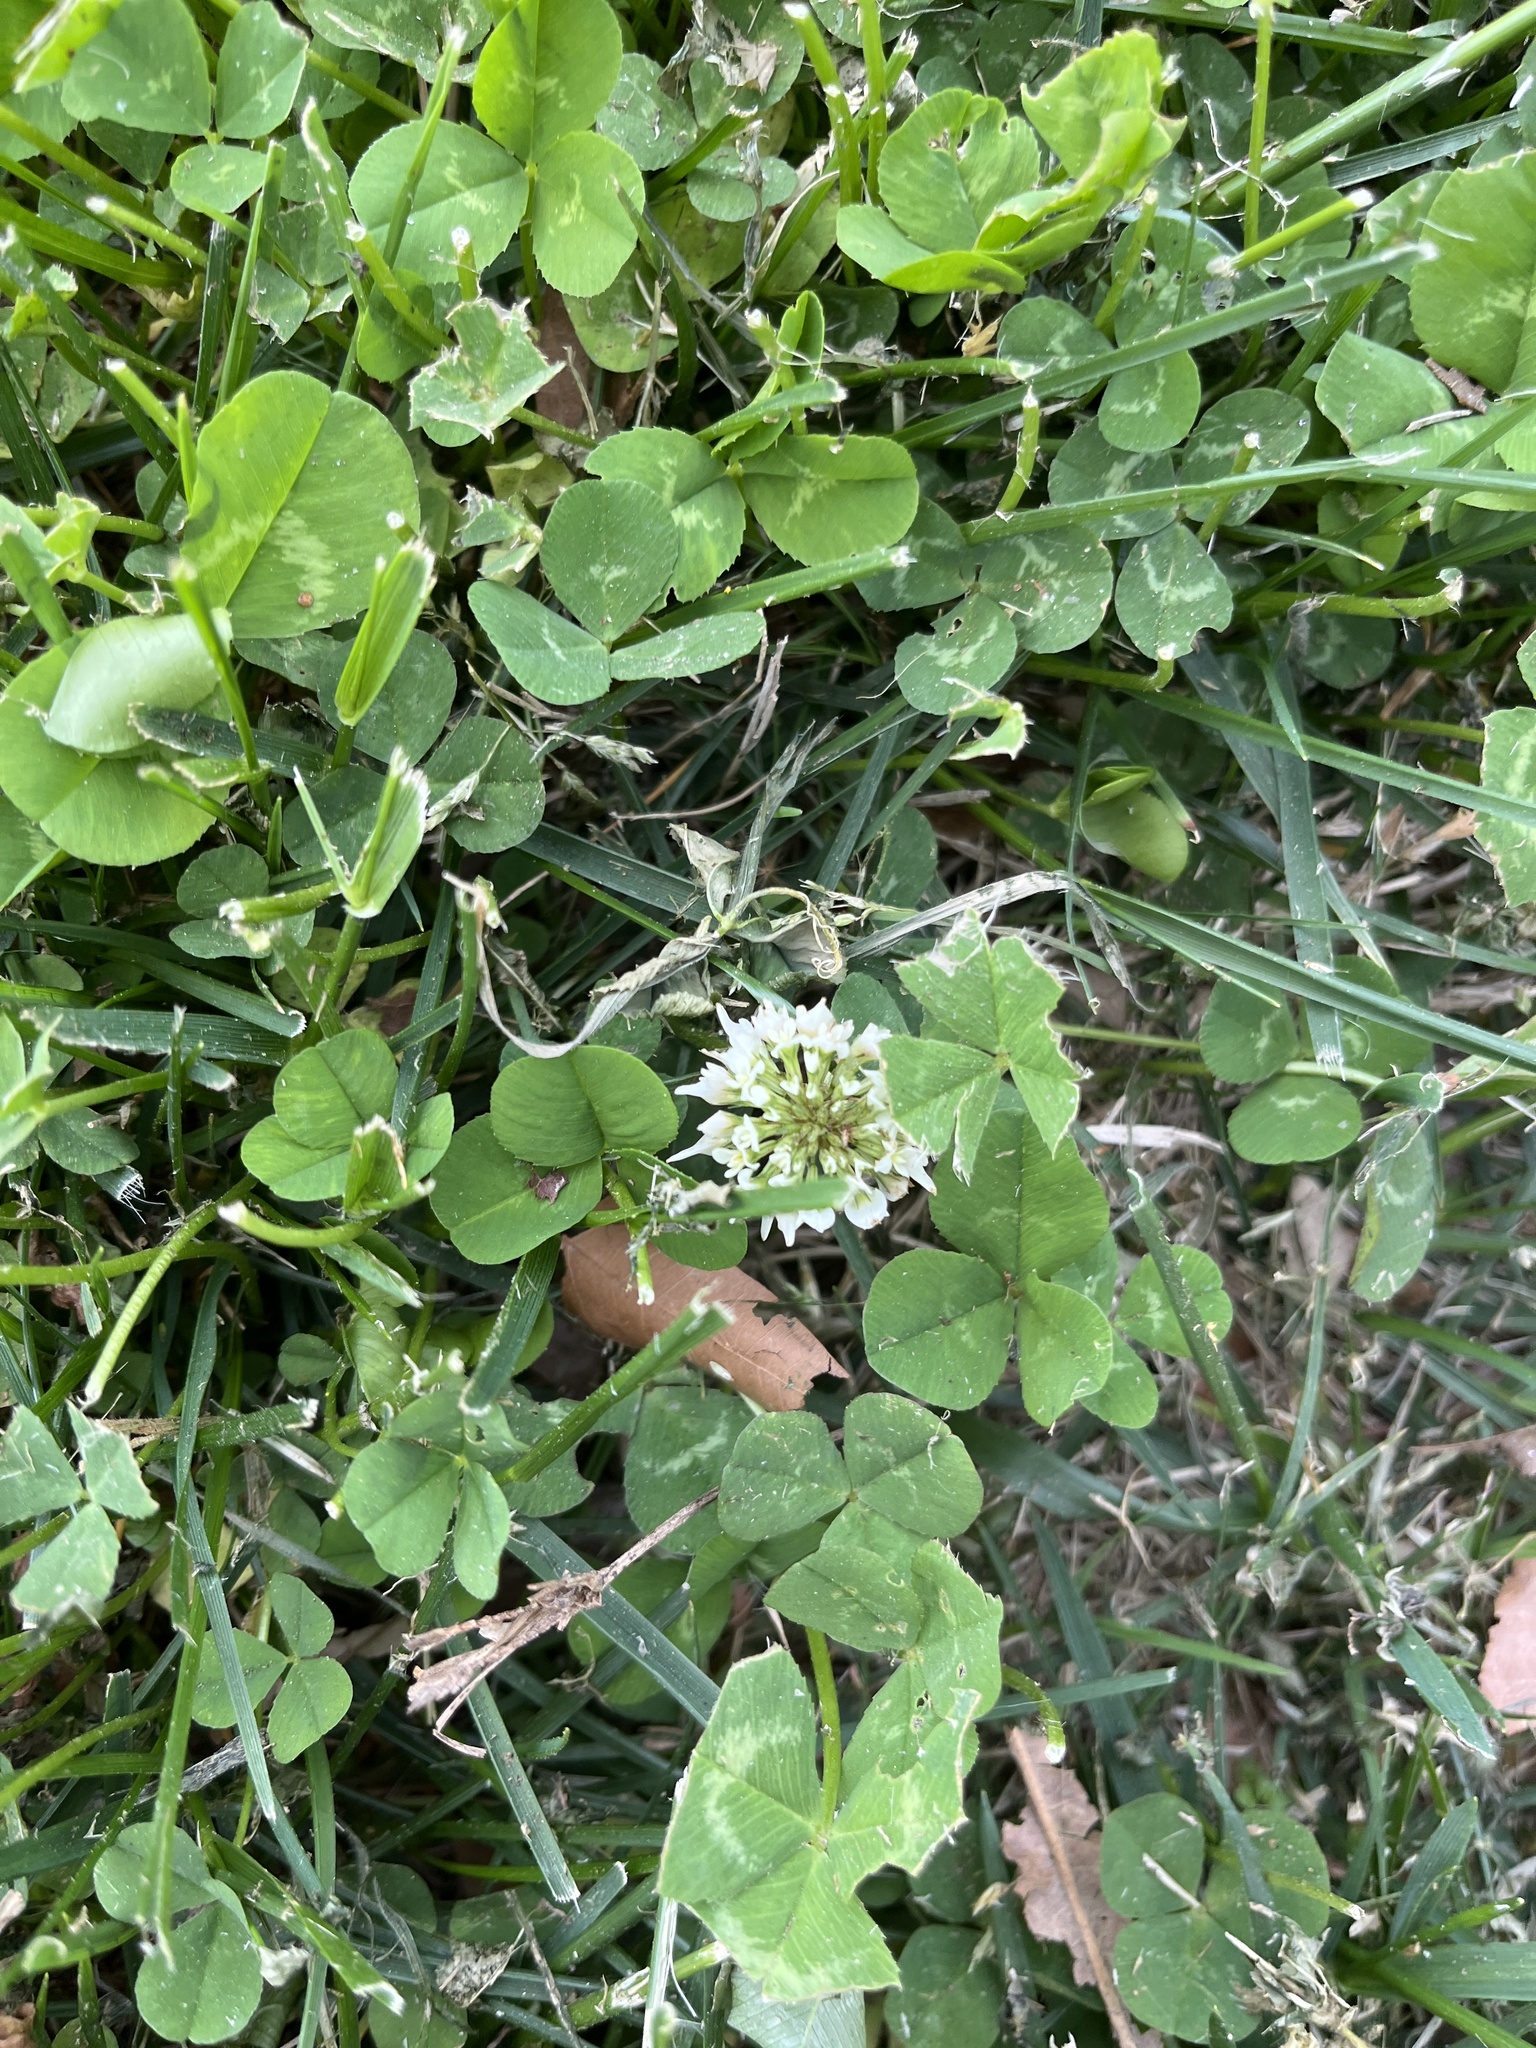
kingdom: Plantae
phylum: Tracheophyta
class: Magnoliopsida
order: Fabales
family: Fabaceae
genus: Trifolium
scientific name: Trifolium repens
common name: White clover
